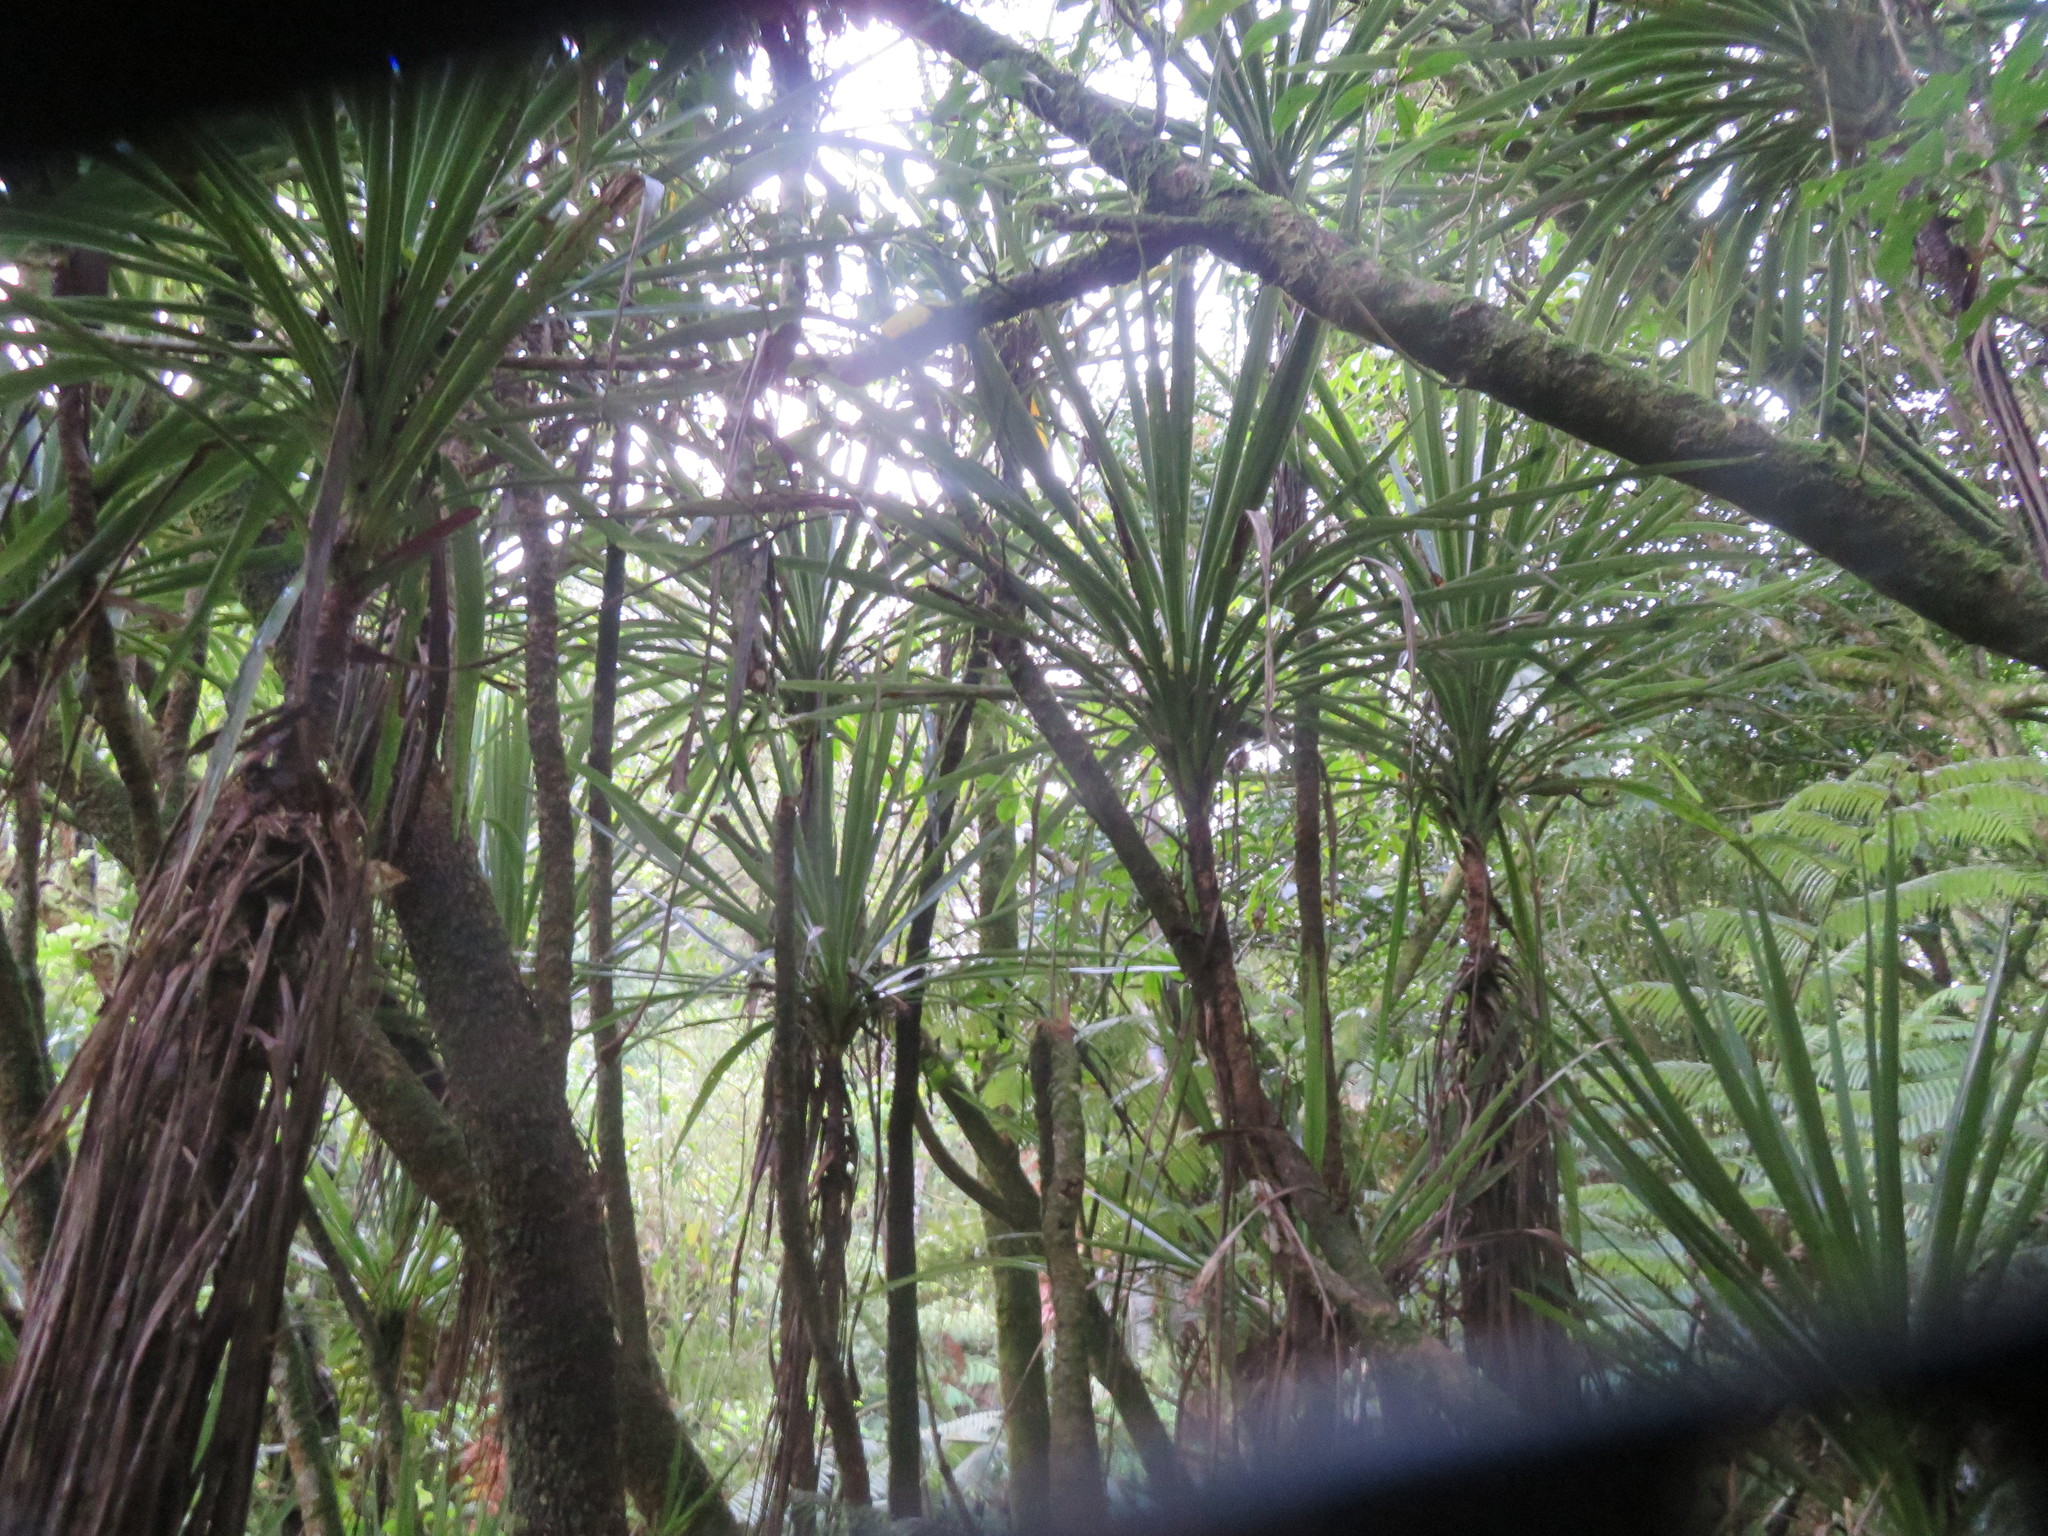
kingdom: Plantae
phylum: Tracheophyta
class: Liliopsida
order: Asparagales
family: Asparagaceae
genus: Cordyline
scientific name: Cordyline australis
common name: Cabbage-palm
